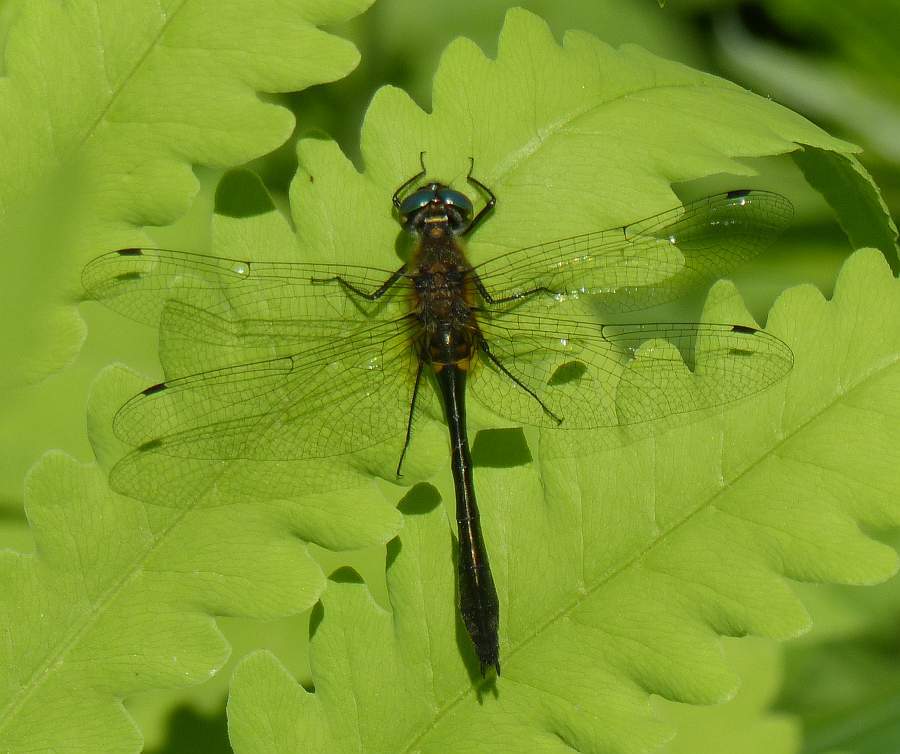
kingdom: Animalia
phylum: Arthropoda
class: Insecta
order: Odonata
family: Corduliidae
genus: Dorocordulia
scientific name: Dorocordulia libera
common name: Racket-tailed emerald
